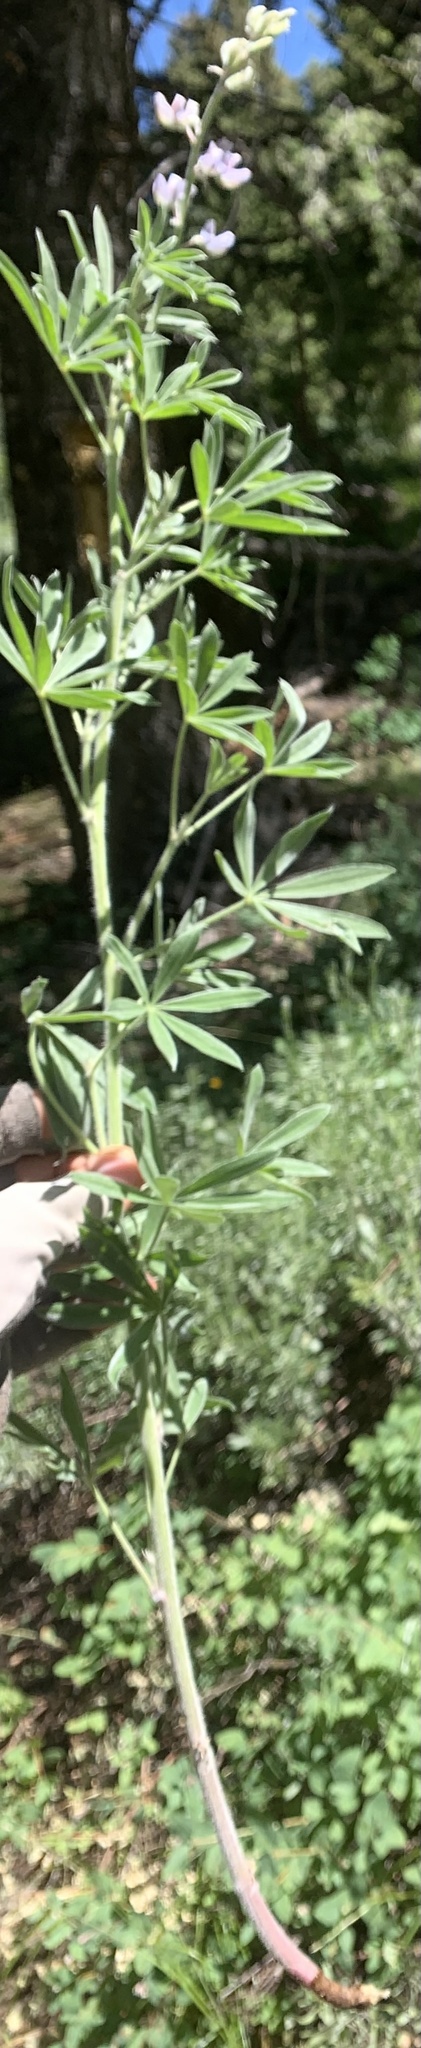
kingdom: Plantae
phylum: Tracheophyta
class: Magnoliopsida
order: Fabales
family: Fabaceae
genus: Lupinus
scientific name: Lupinus sericeus
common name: Silky lupine
